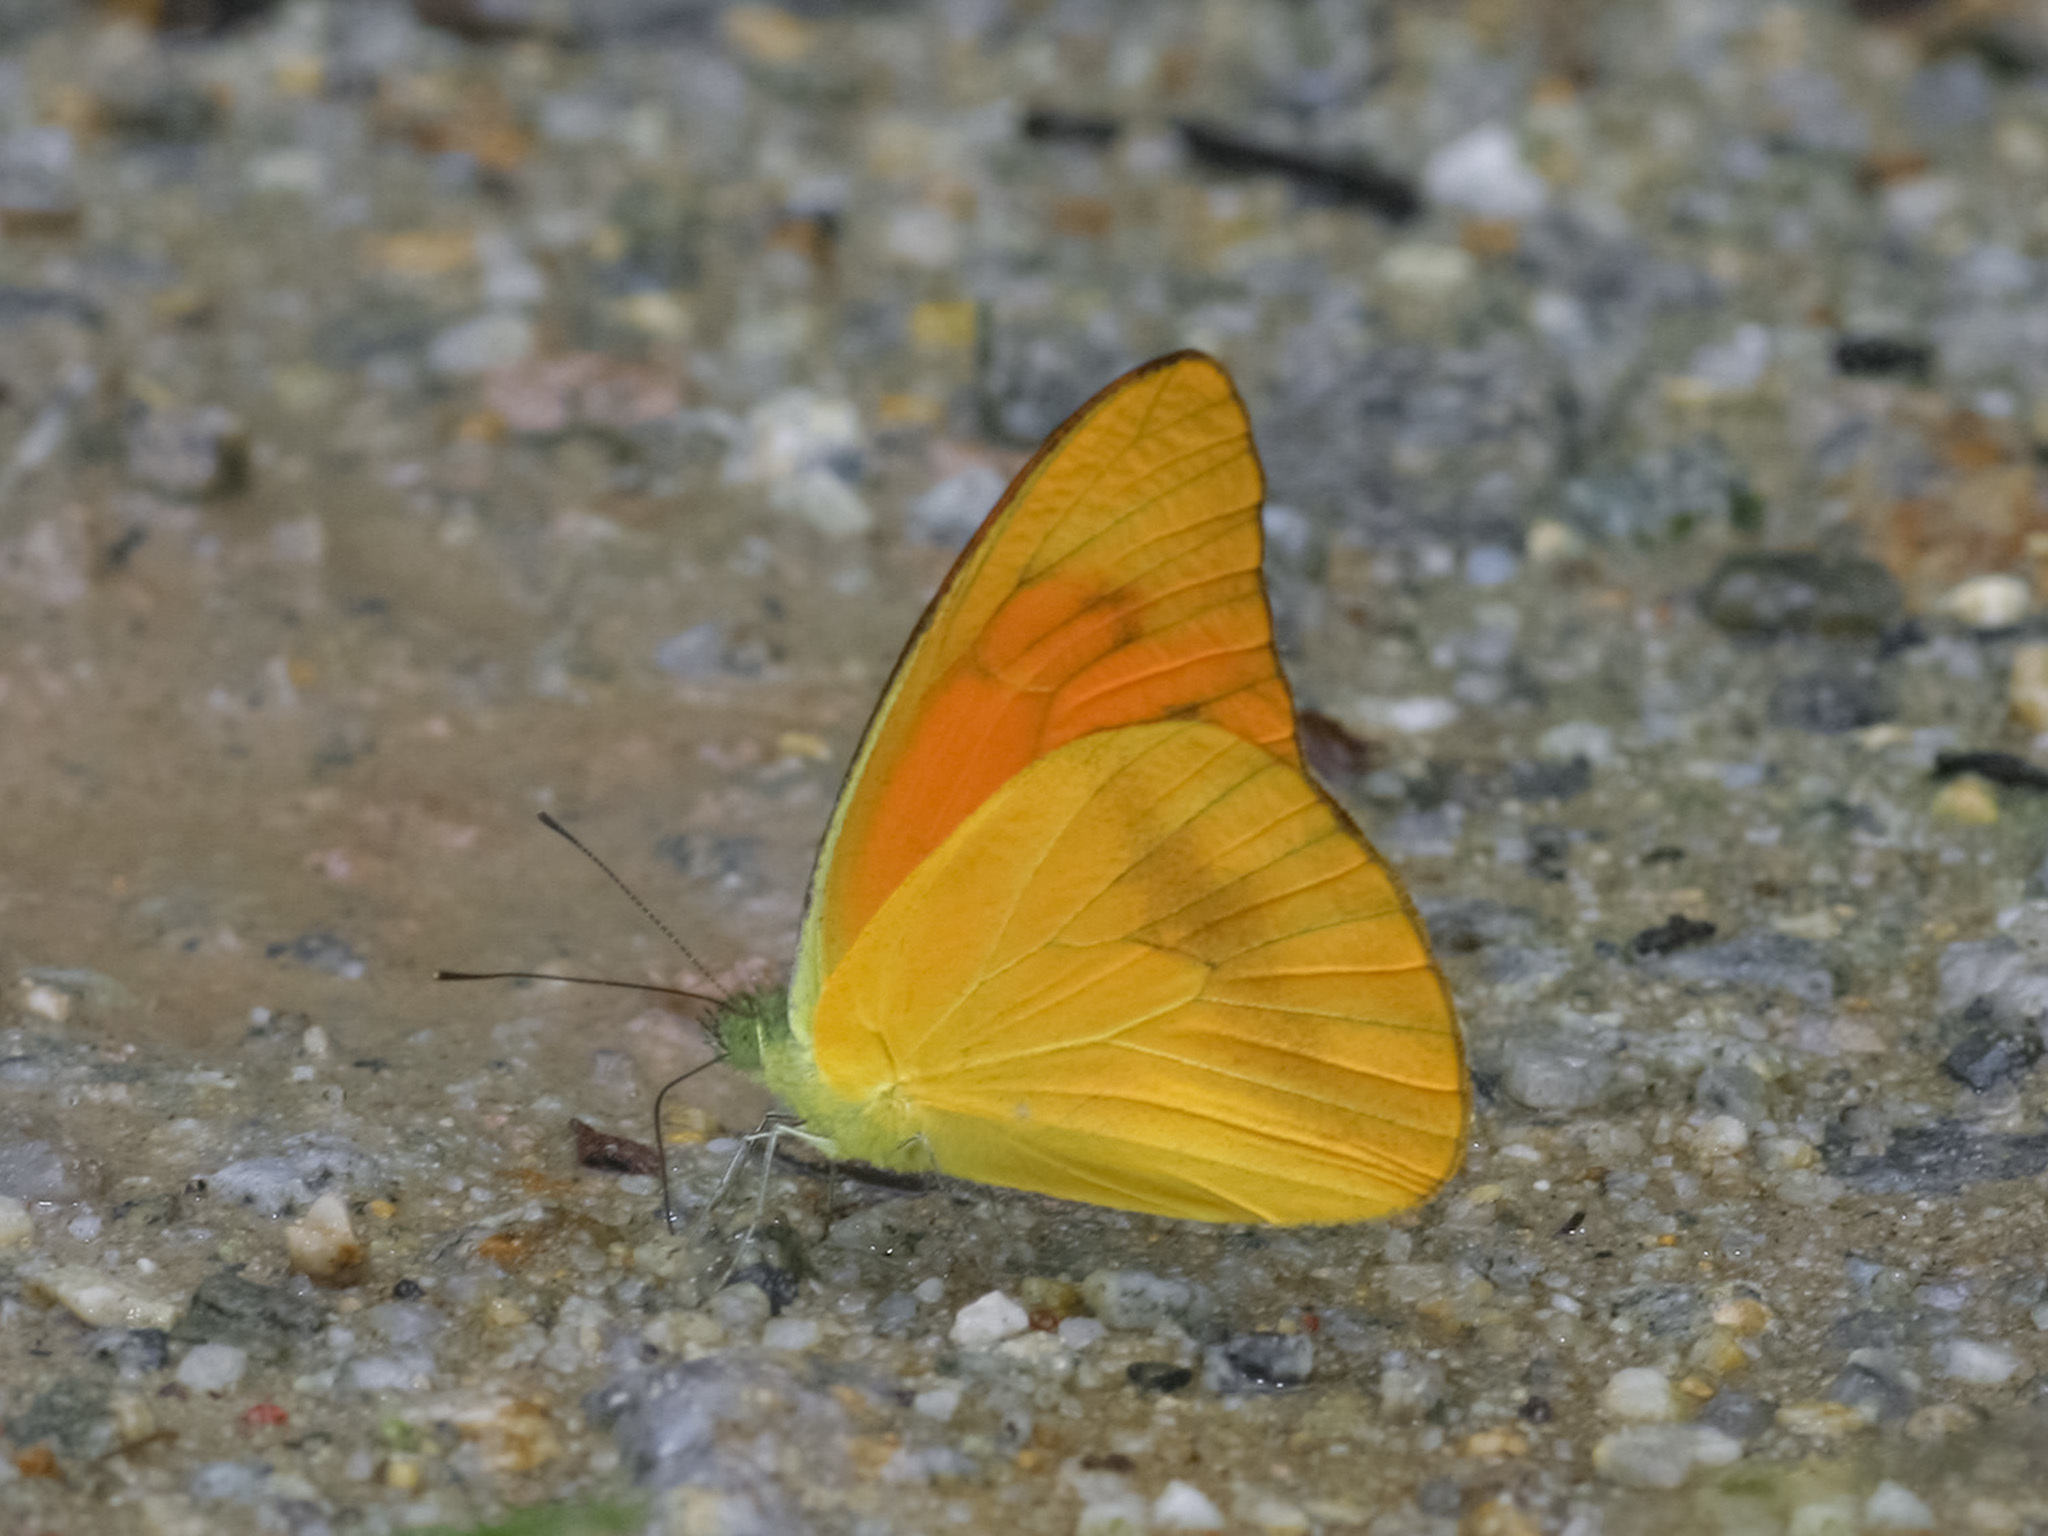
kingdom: Animalia
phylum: Arthropoda
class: Insecta
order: Lepidoptera
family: Pieridae
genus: Appias
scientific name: Appias nero
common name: Orange albatross
